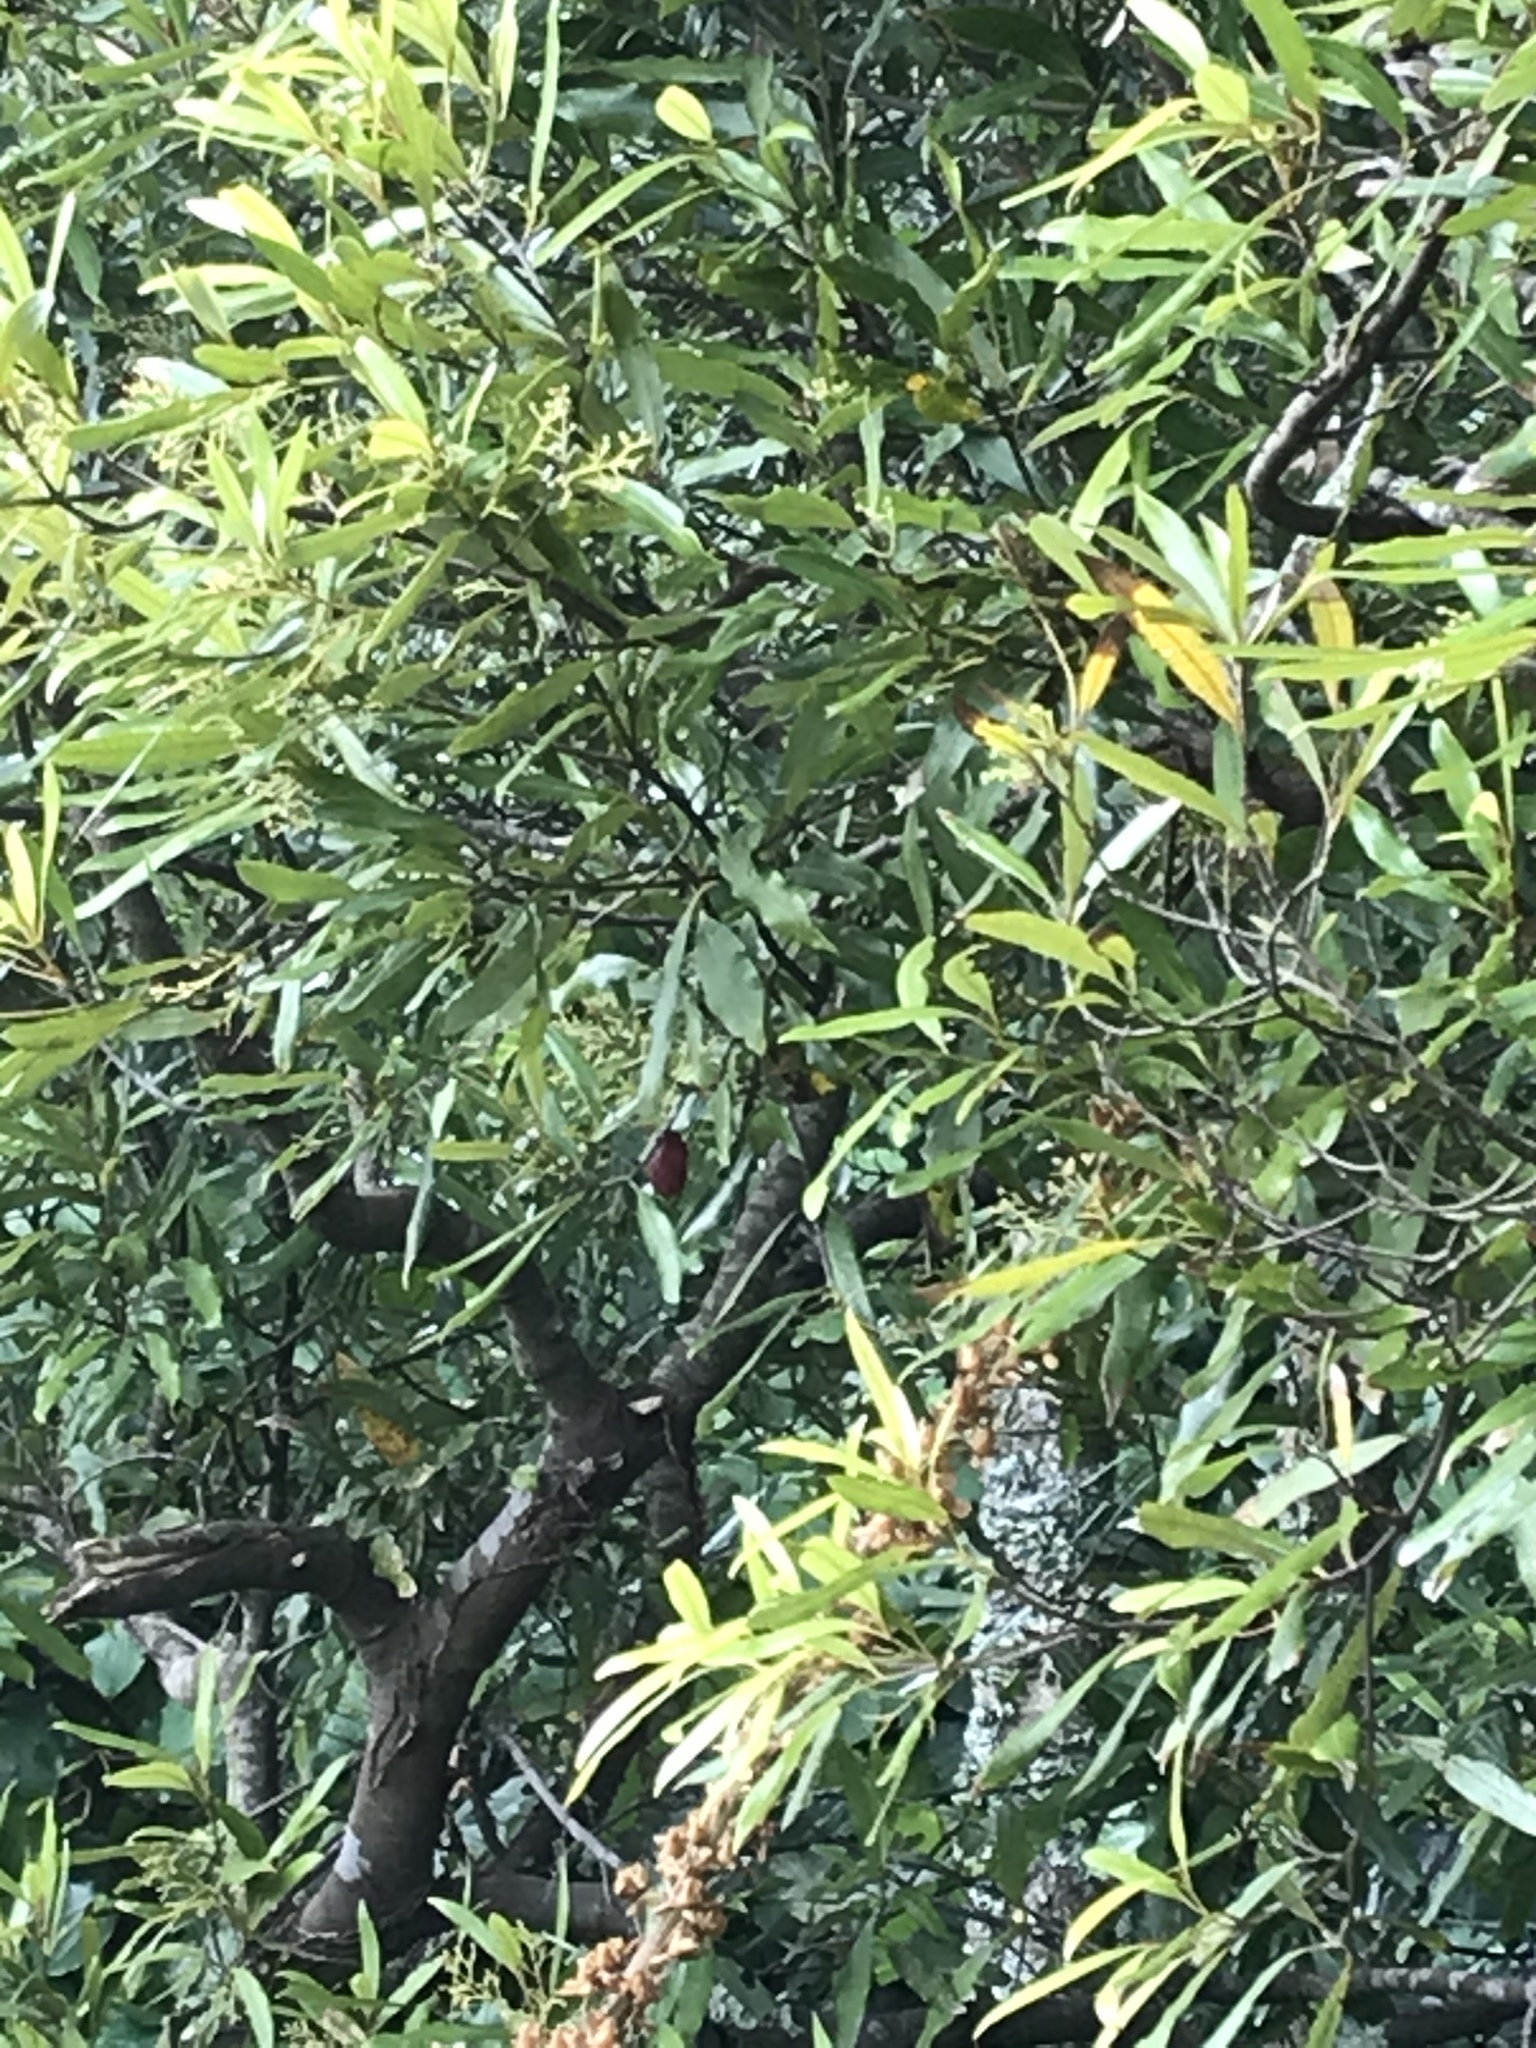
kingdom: Plantae
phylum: Tracheophyta
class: Magnoliopsida
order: Laurales
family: Lauraceae
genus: Beilschmiedia
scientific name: Beilschmiedia tawa
